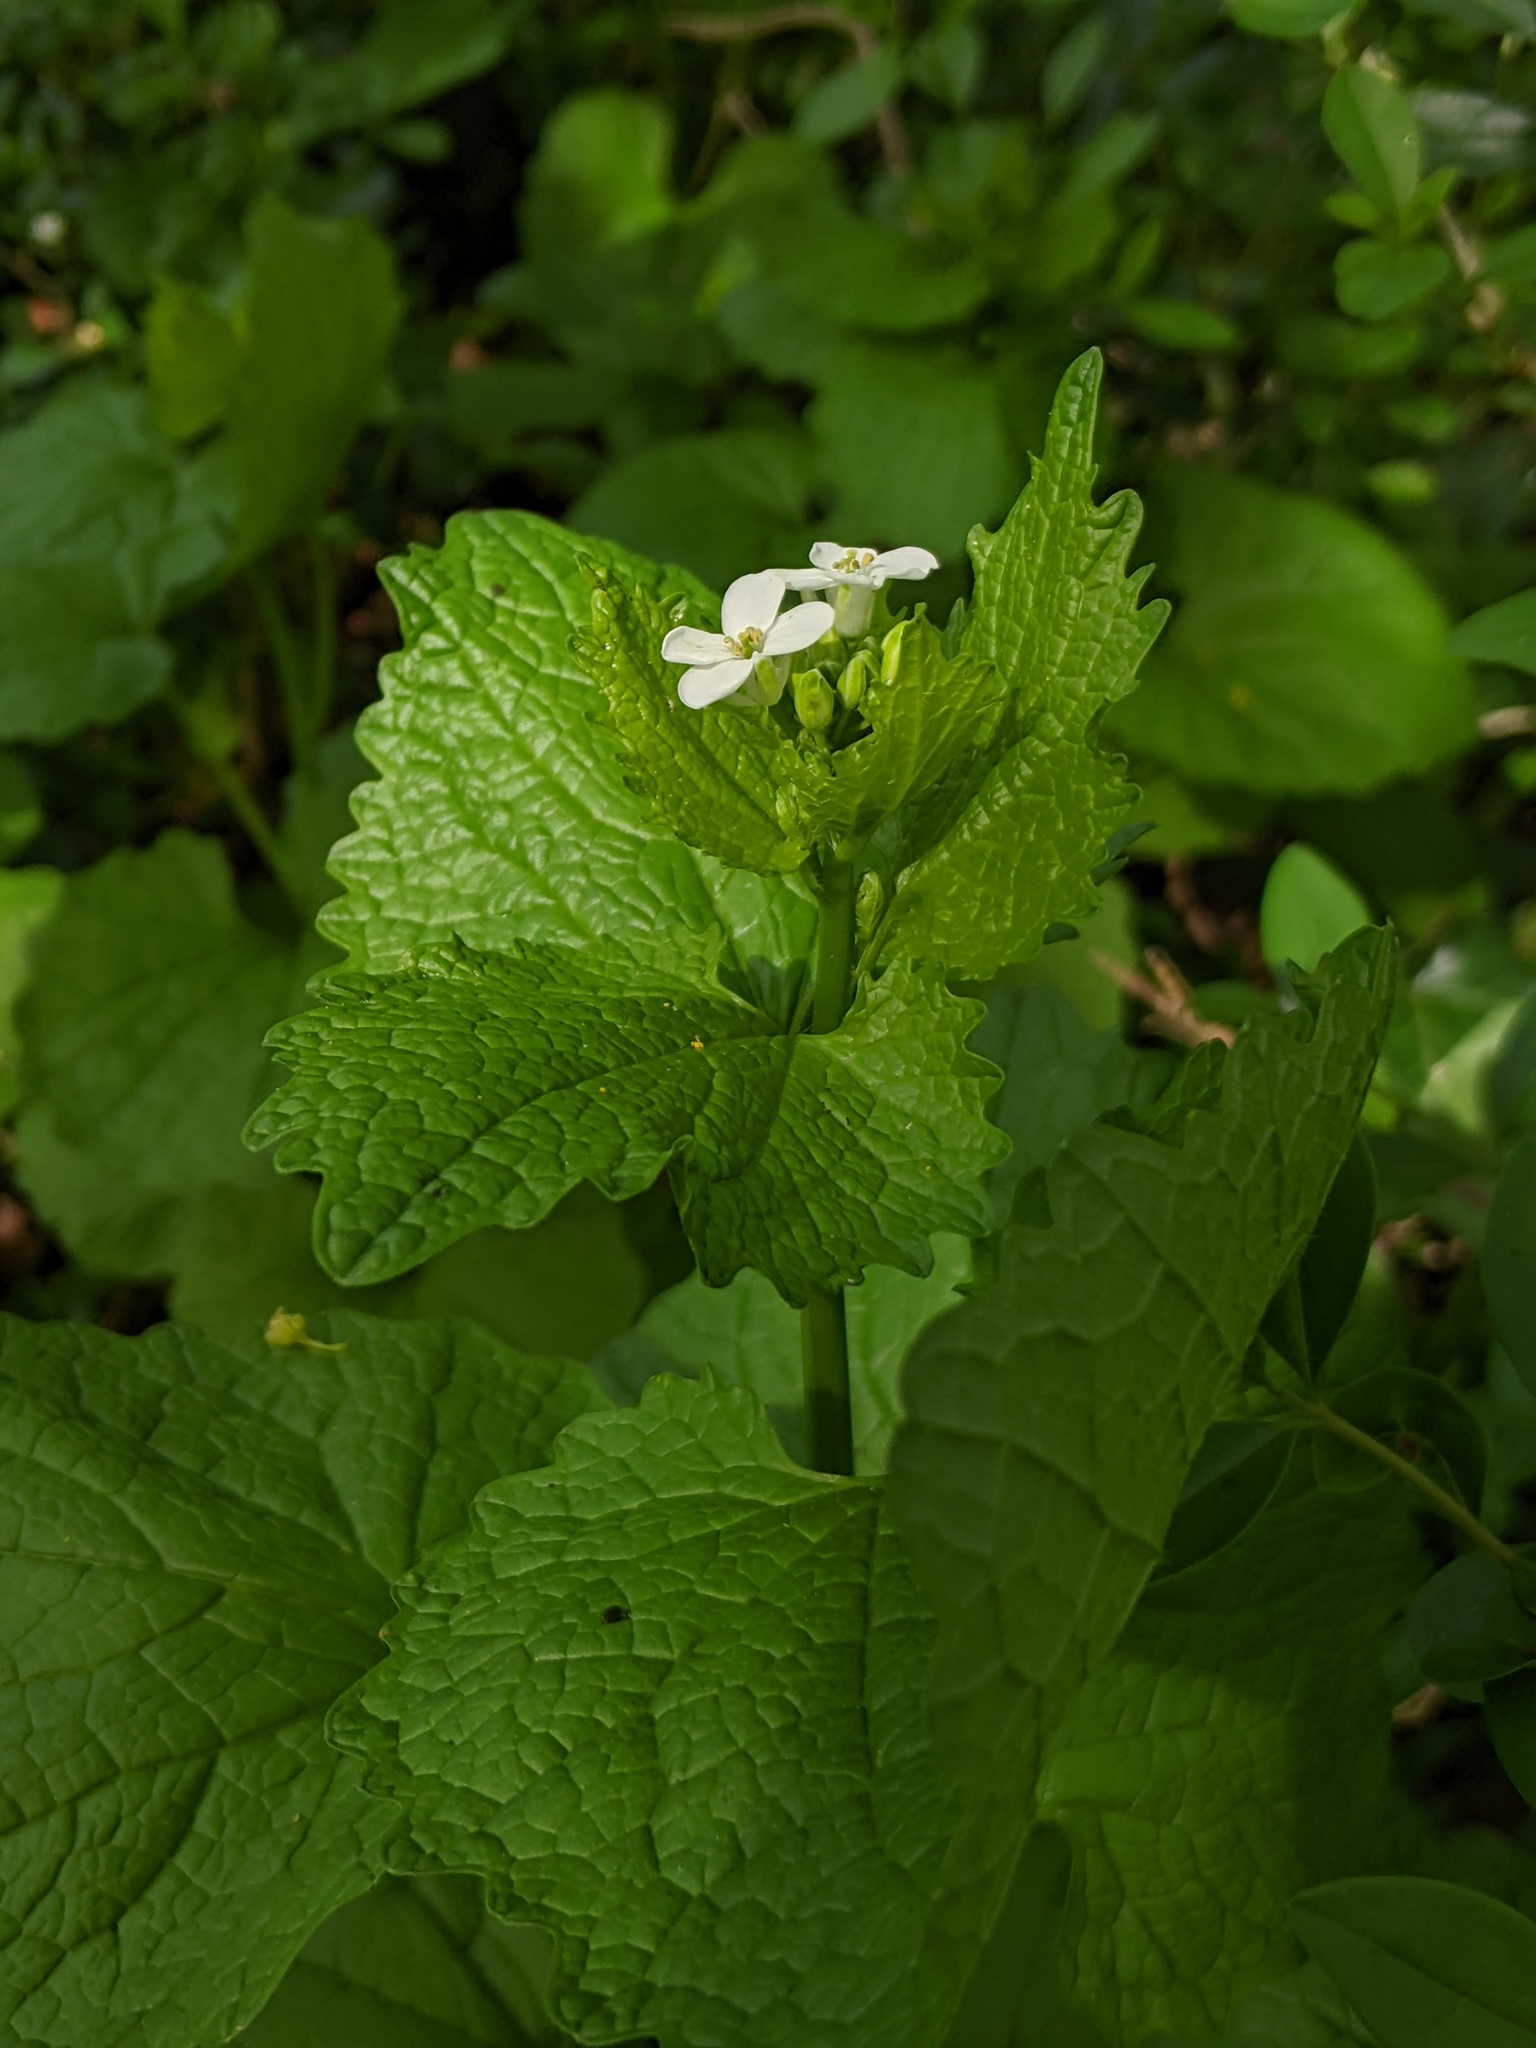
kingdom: Plantae
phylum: Tracheophyta
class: Magnoliopsida
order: Brassicales
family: Brassicaceae
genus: Alliaria
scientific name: Alliaria petiolata
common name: Garlic mustard
